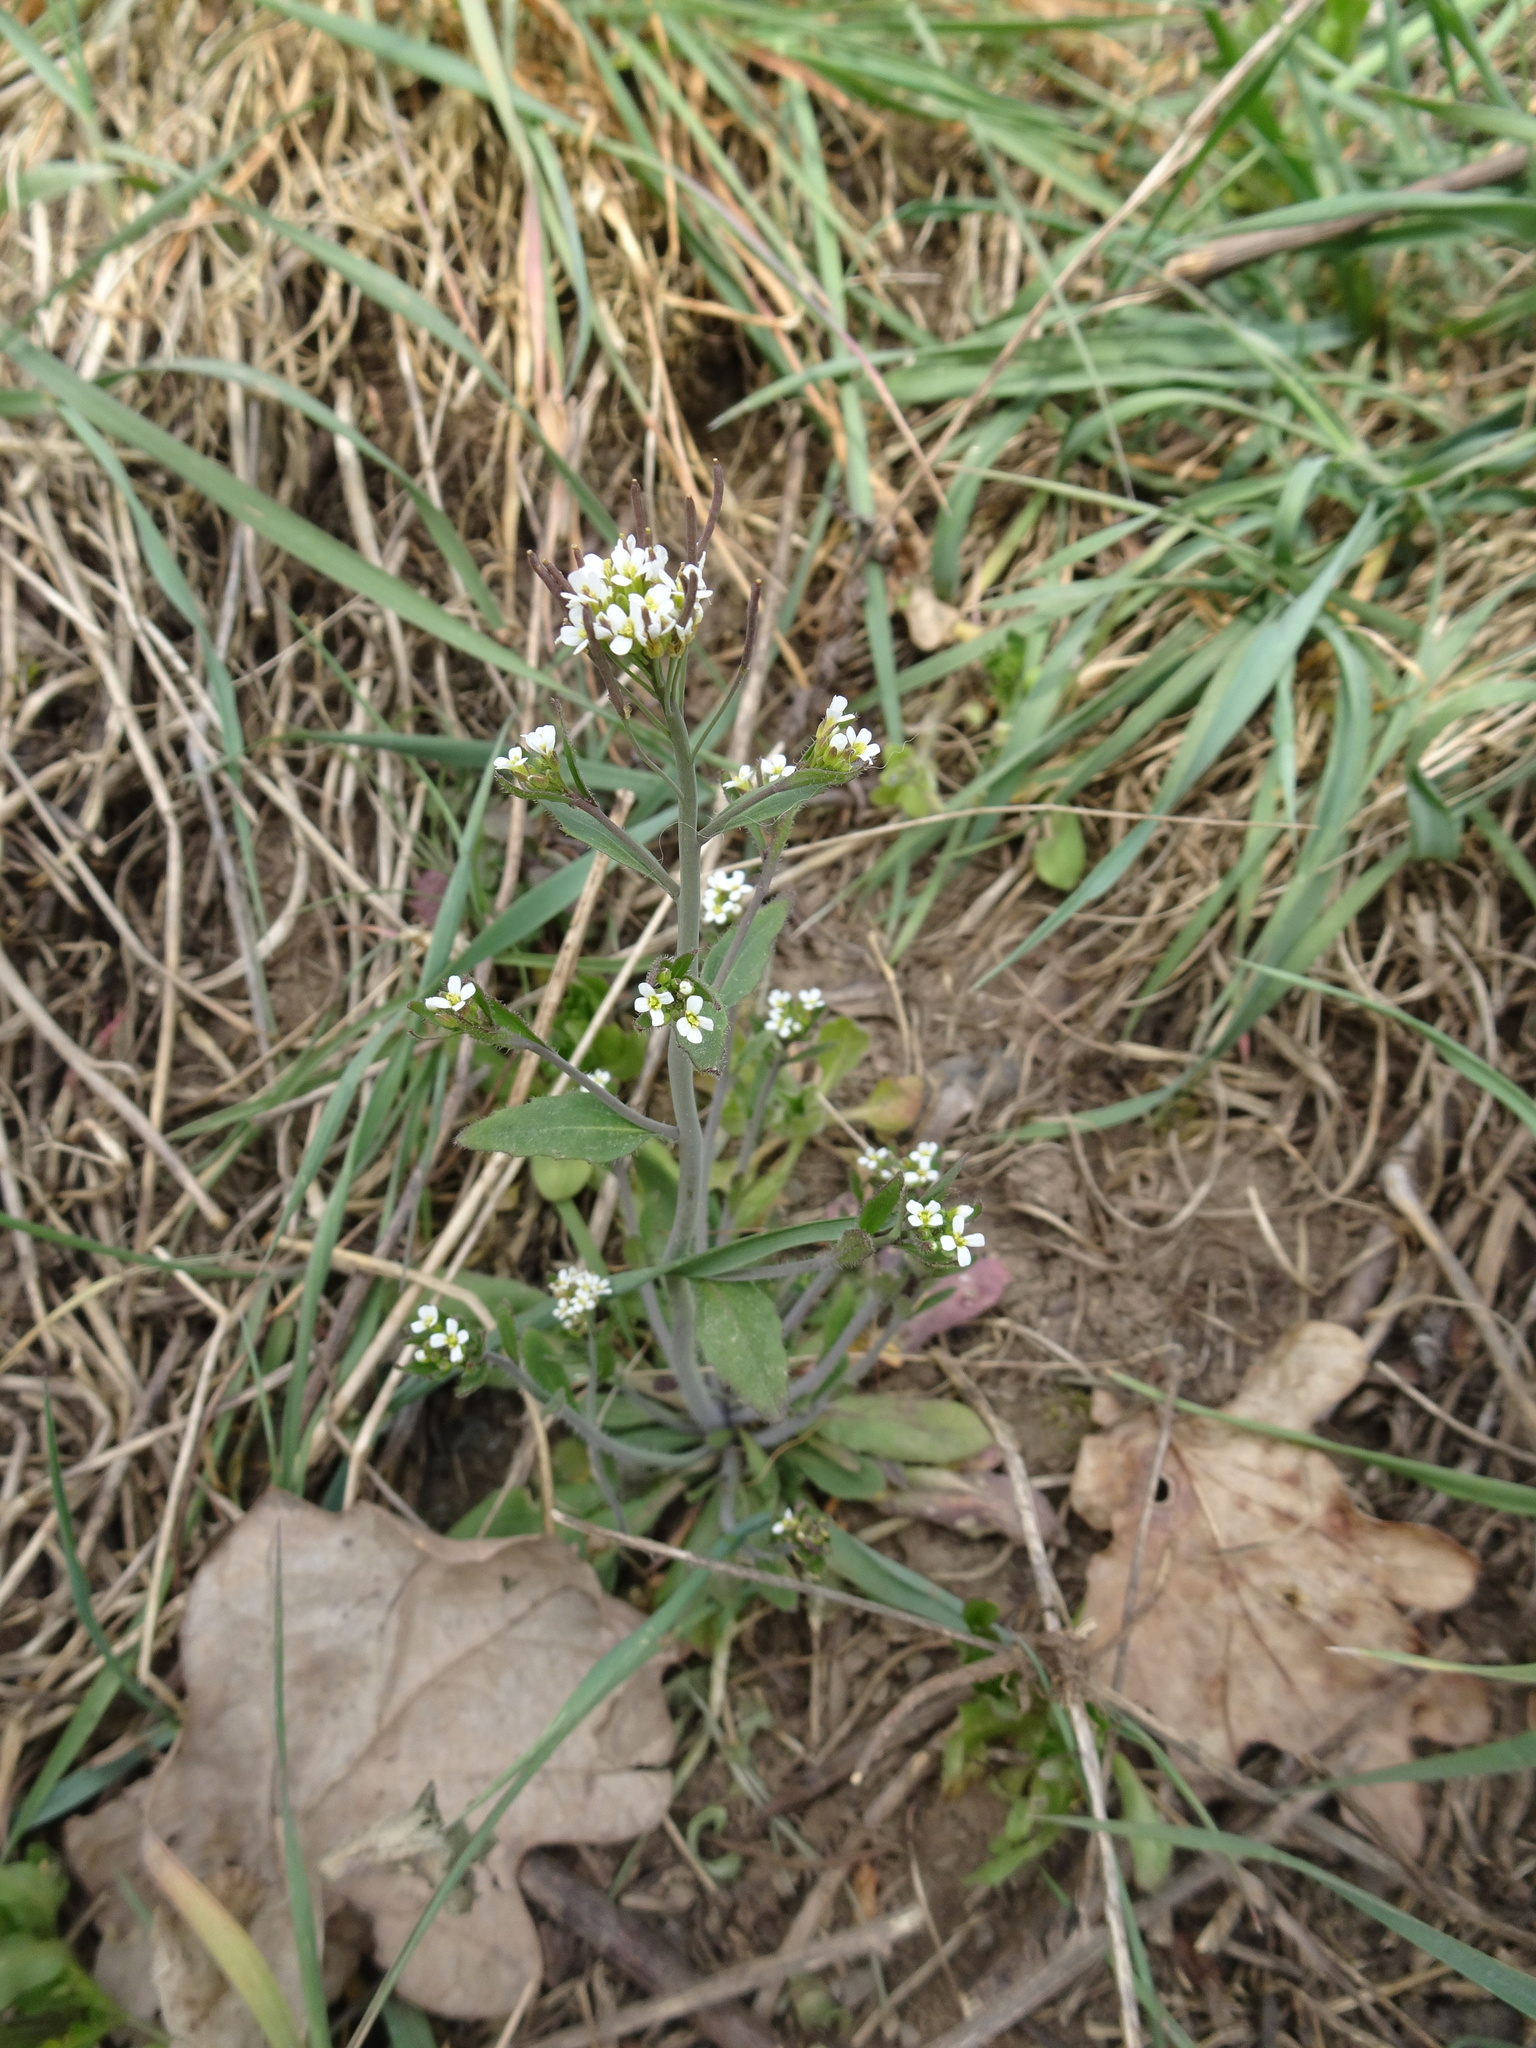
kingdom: Plantae
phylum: Tracheophyta
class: Magnoliopsida
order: Brassicales
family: Brassicaceae
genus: Arabidopsis
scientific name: Arabidopsis thaliana
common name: Thale cress
